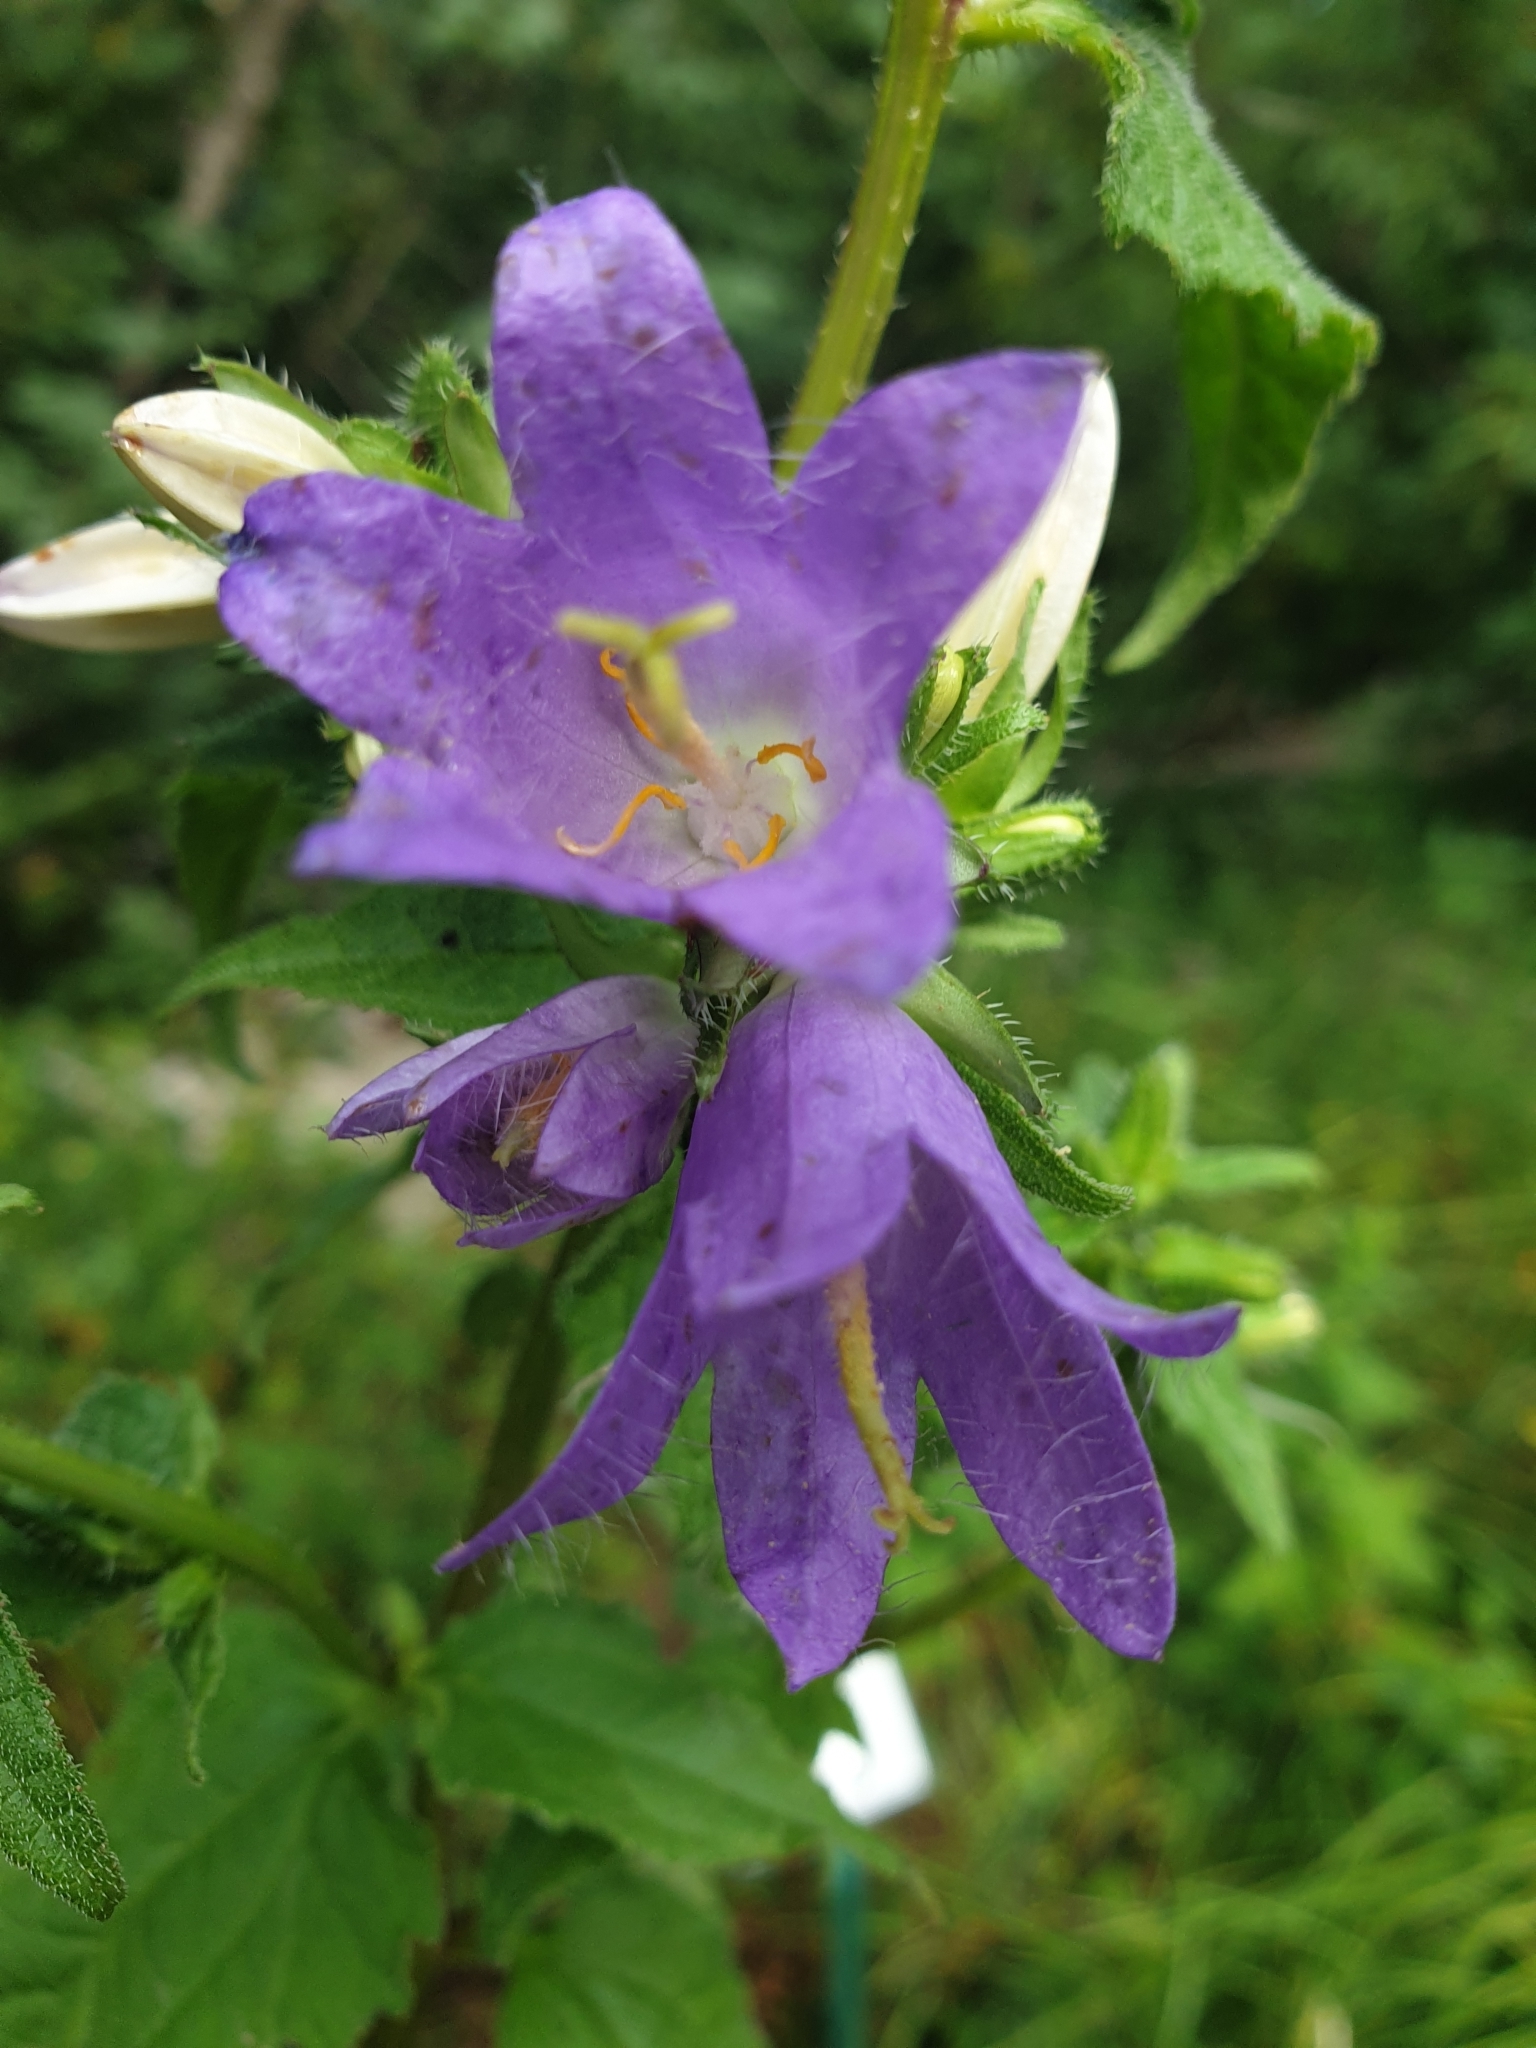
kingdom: Plantae
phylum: Tracheophyta
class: Magnoliopsida
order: Asterales
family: Campanulaceae
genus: Campanula
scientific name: Campanula trachelium
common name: Nettle-leaved bellflower
